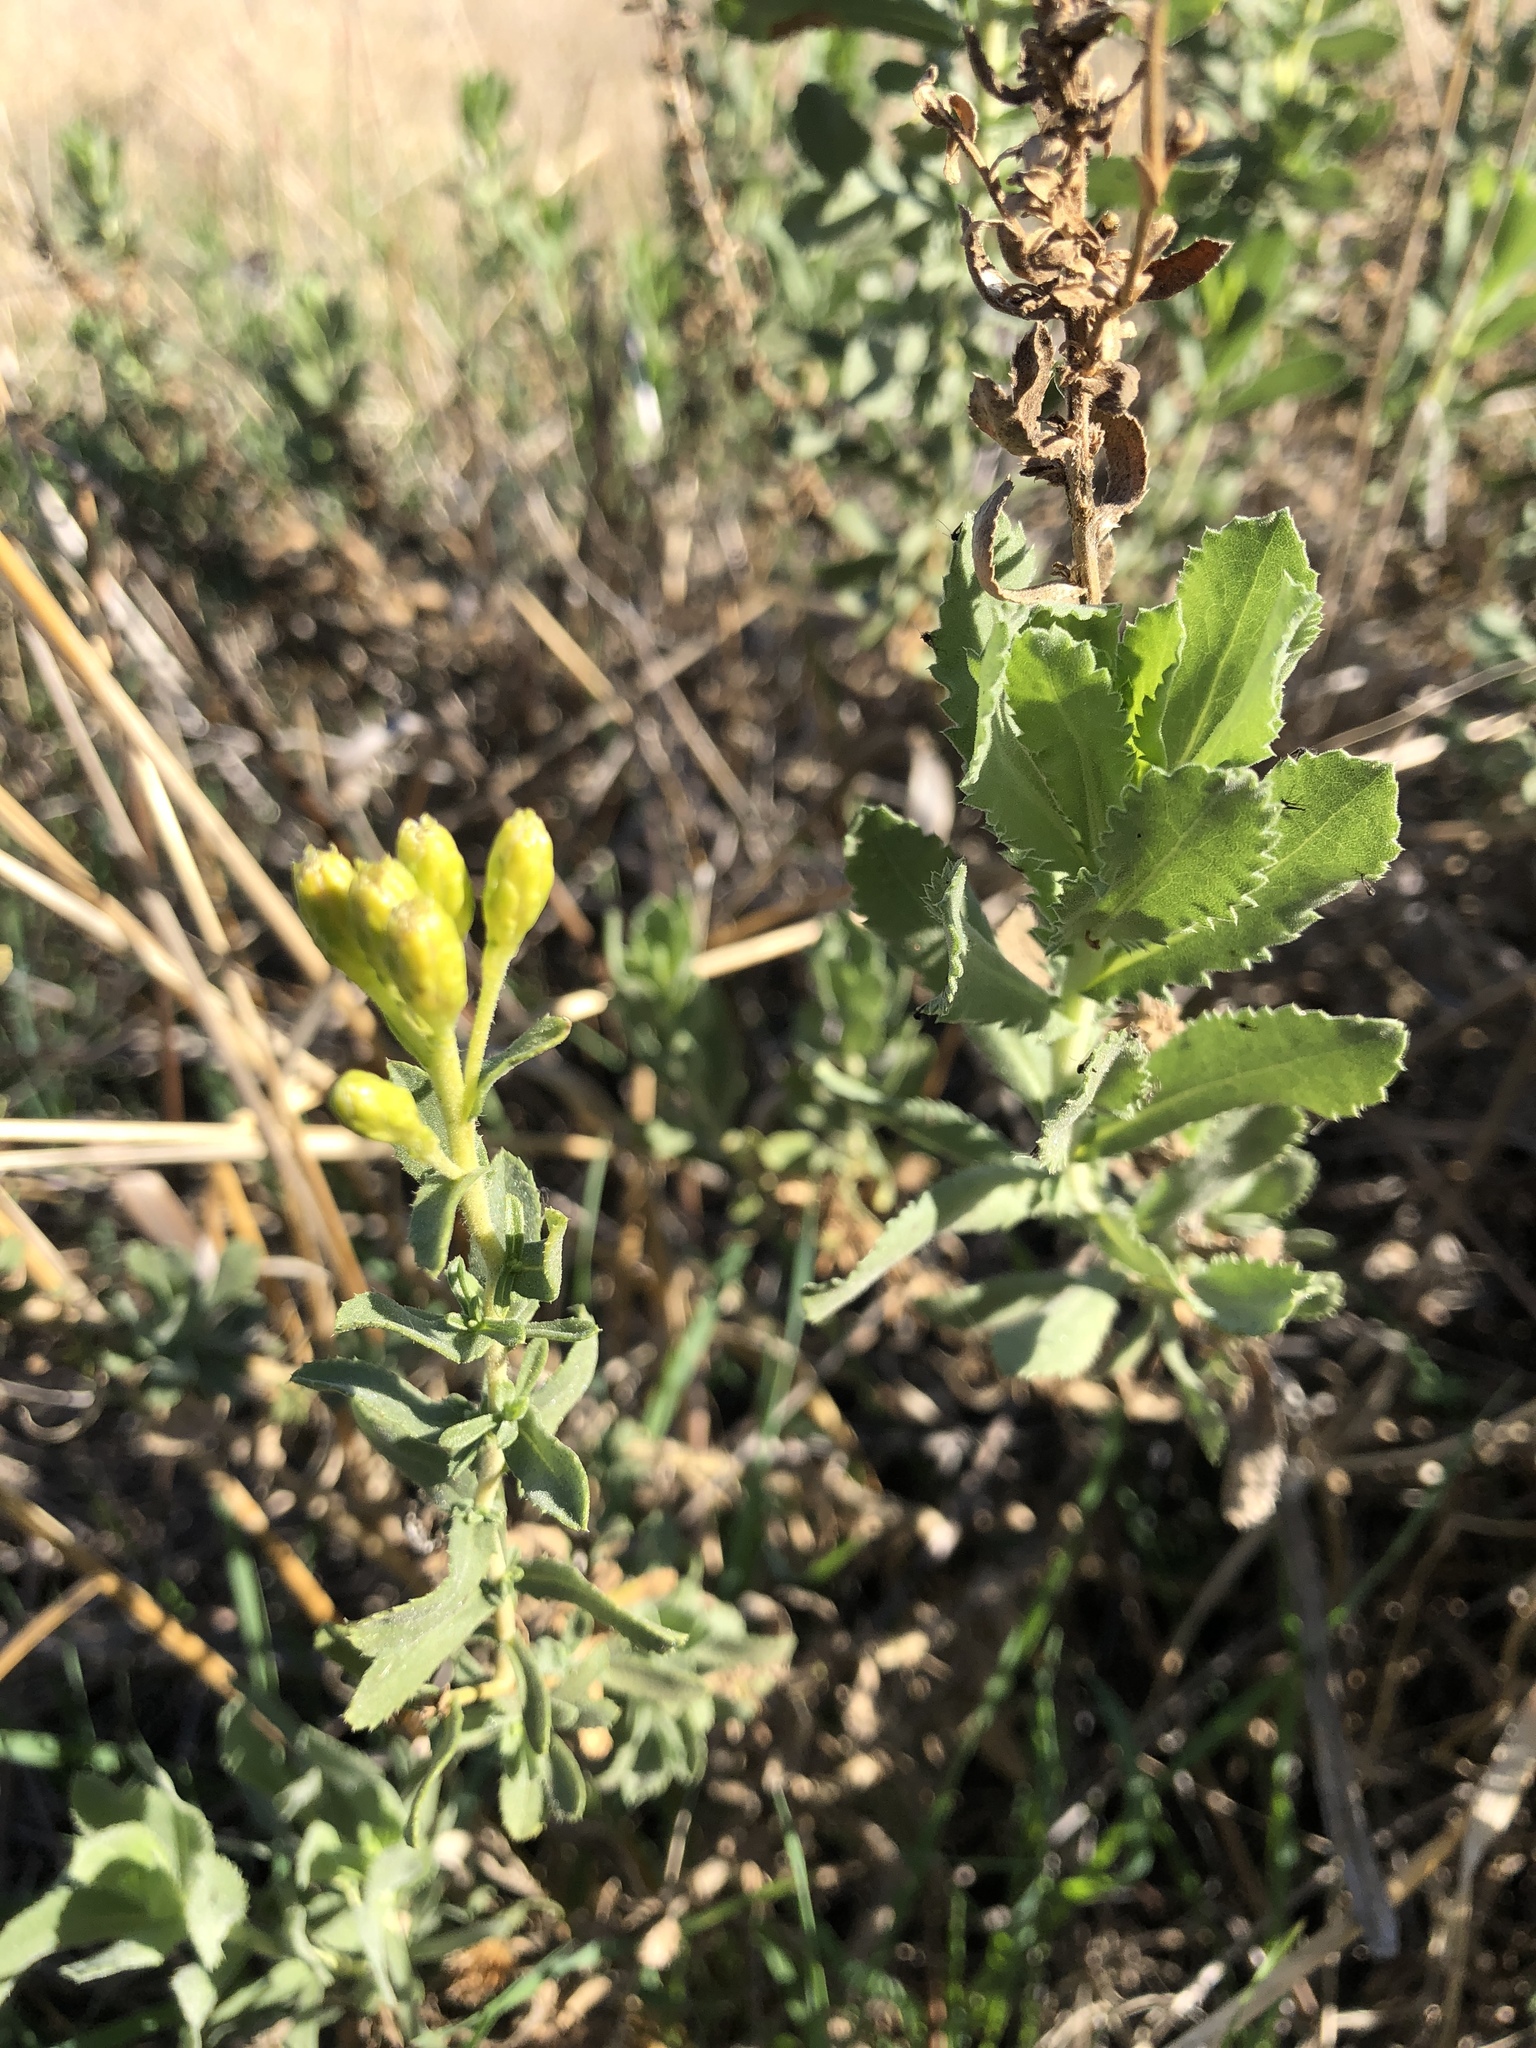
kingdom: Plantae
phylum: Tracheophyta
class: Magnoliopsida
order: Asterales
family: Asteraceae
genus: Hazardia
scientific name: Hazardia squarrosa
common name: Saw-tooth goldenbush
